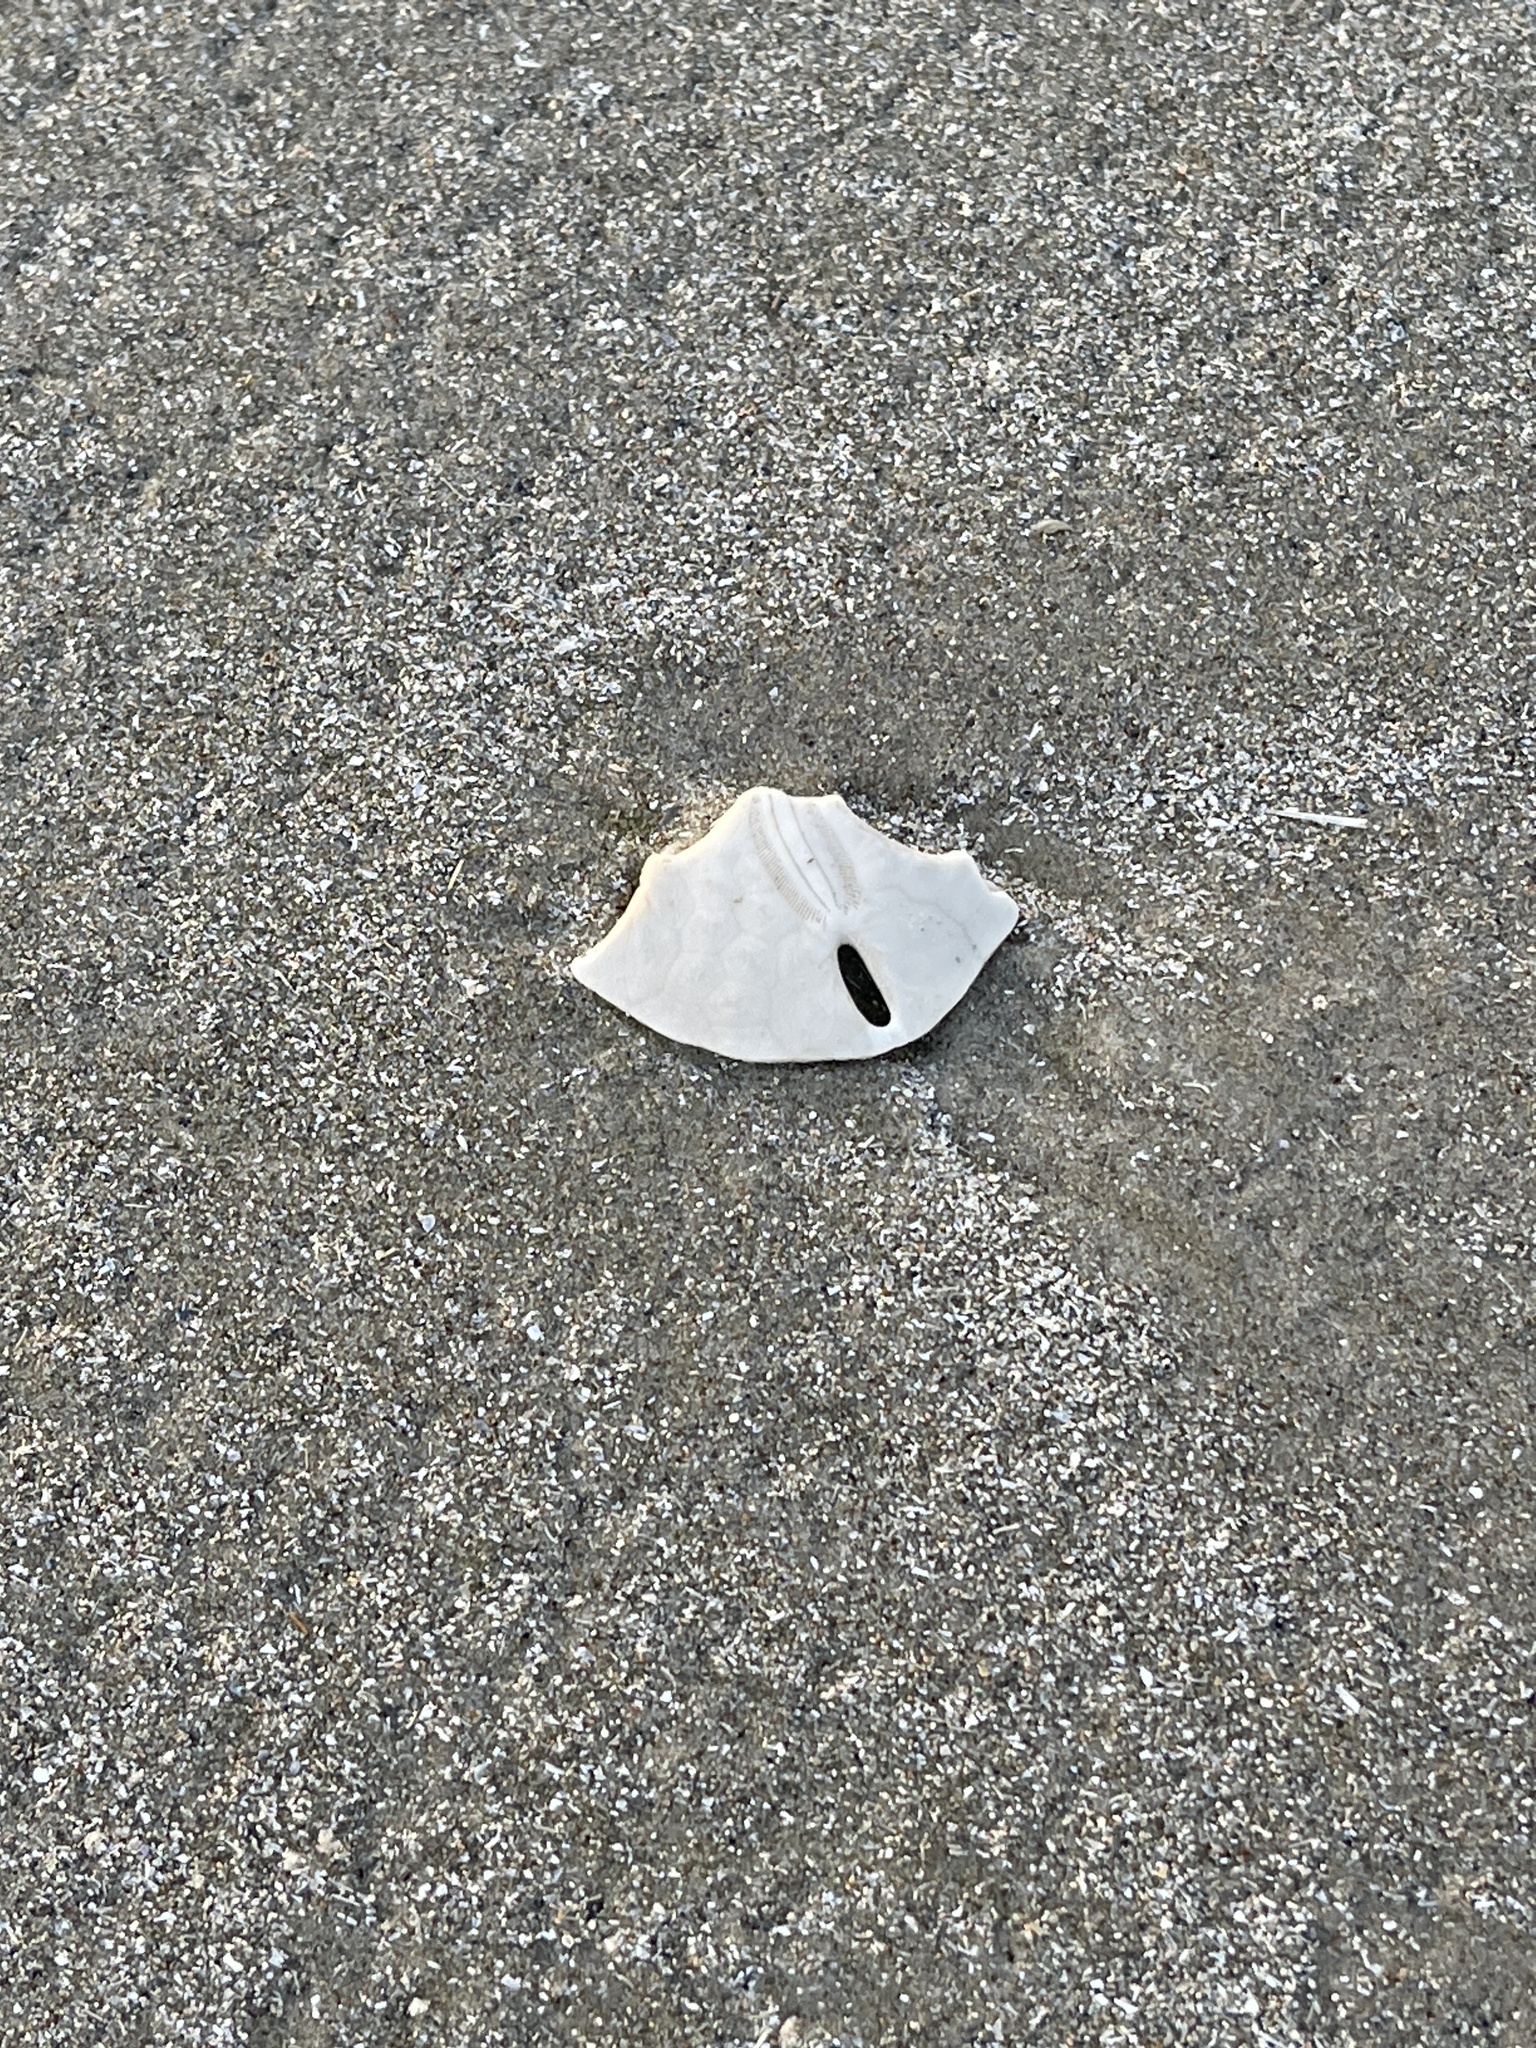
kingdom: Animalia
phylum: Echinodermata
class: Echinoidea
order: Echinolampadacea
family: Mellitidae
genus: Mellita
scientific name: Mellita quinquiesperforata
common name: Sand dollar
